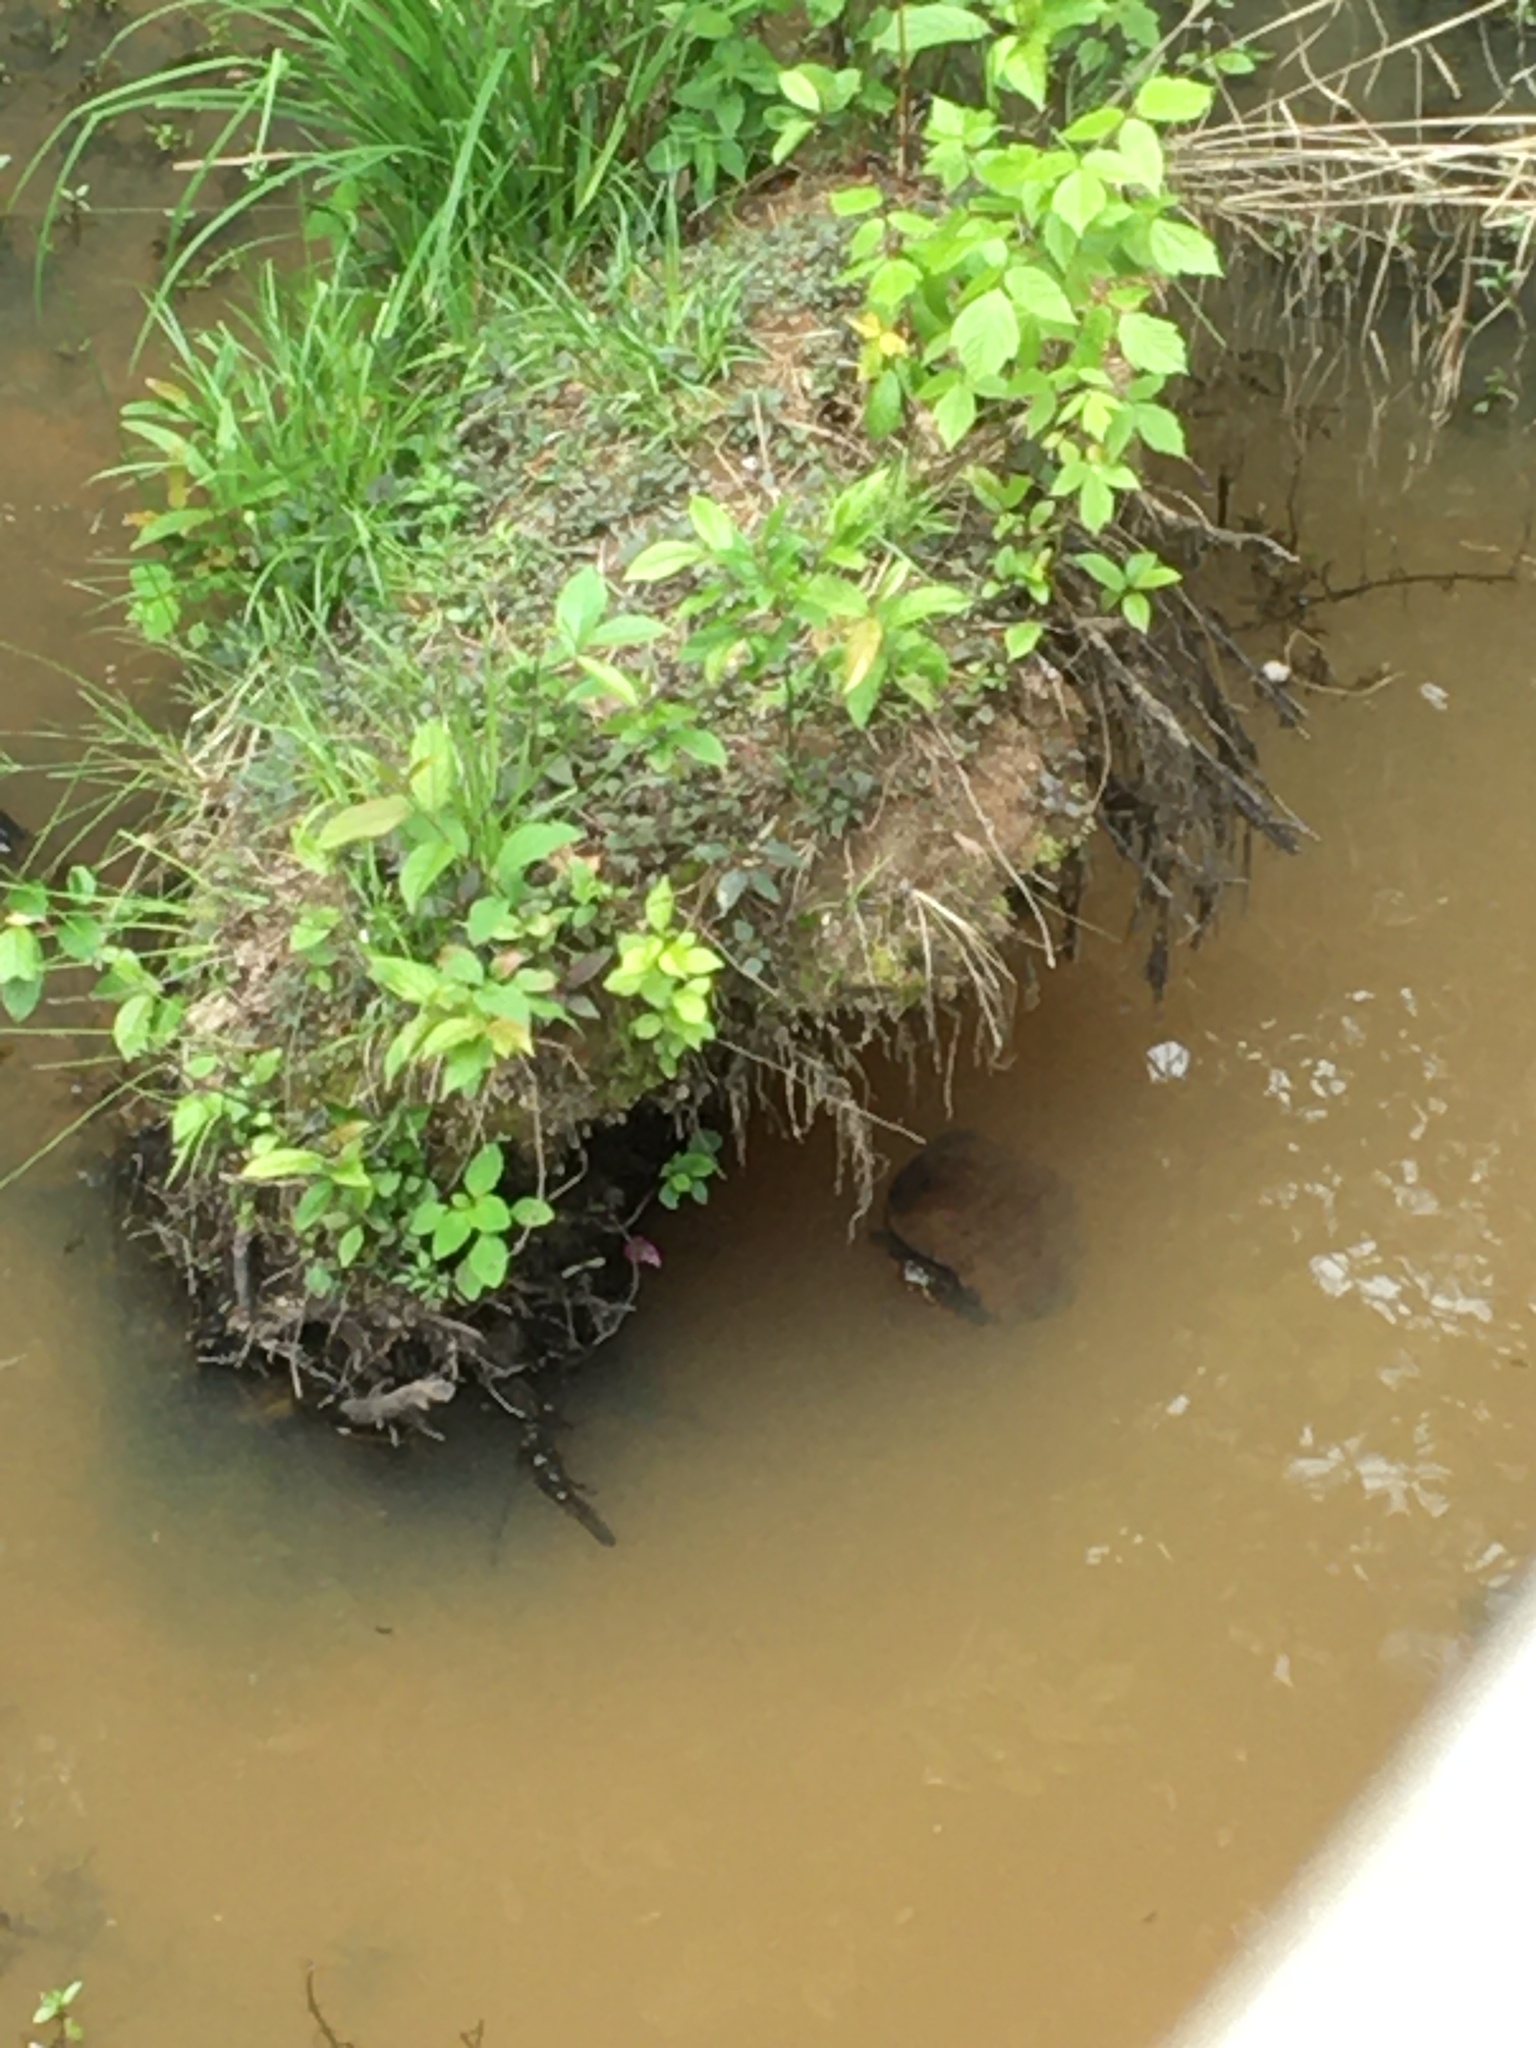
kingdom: Animalia
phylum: Chordata
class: Testudines
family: Emydidae
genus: Trachemys
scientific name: Trachemys scripta
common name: Slider
